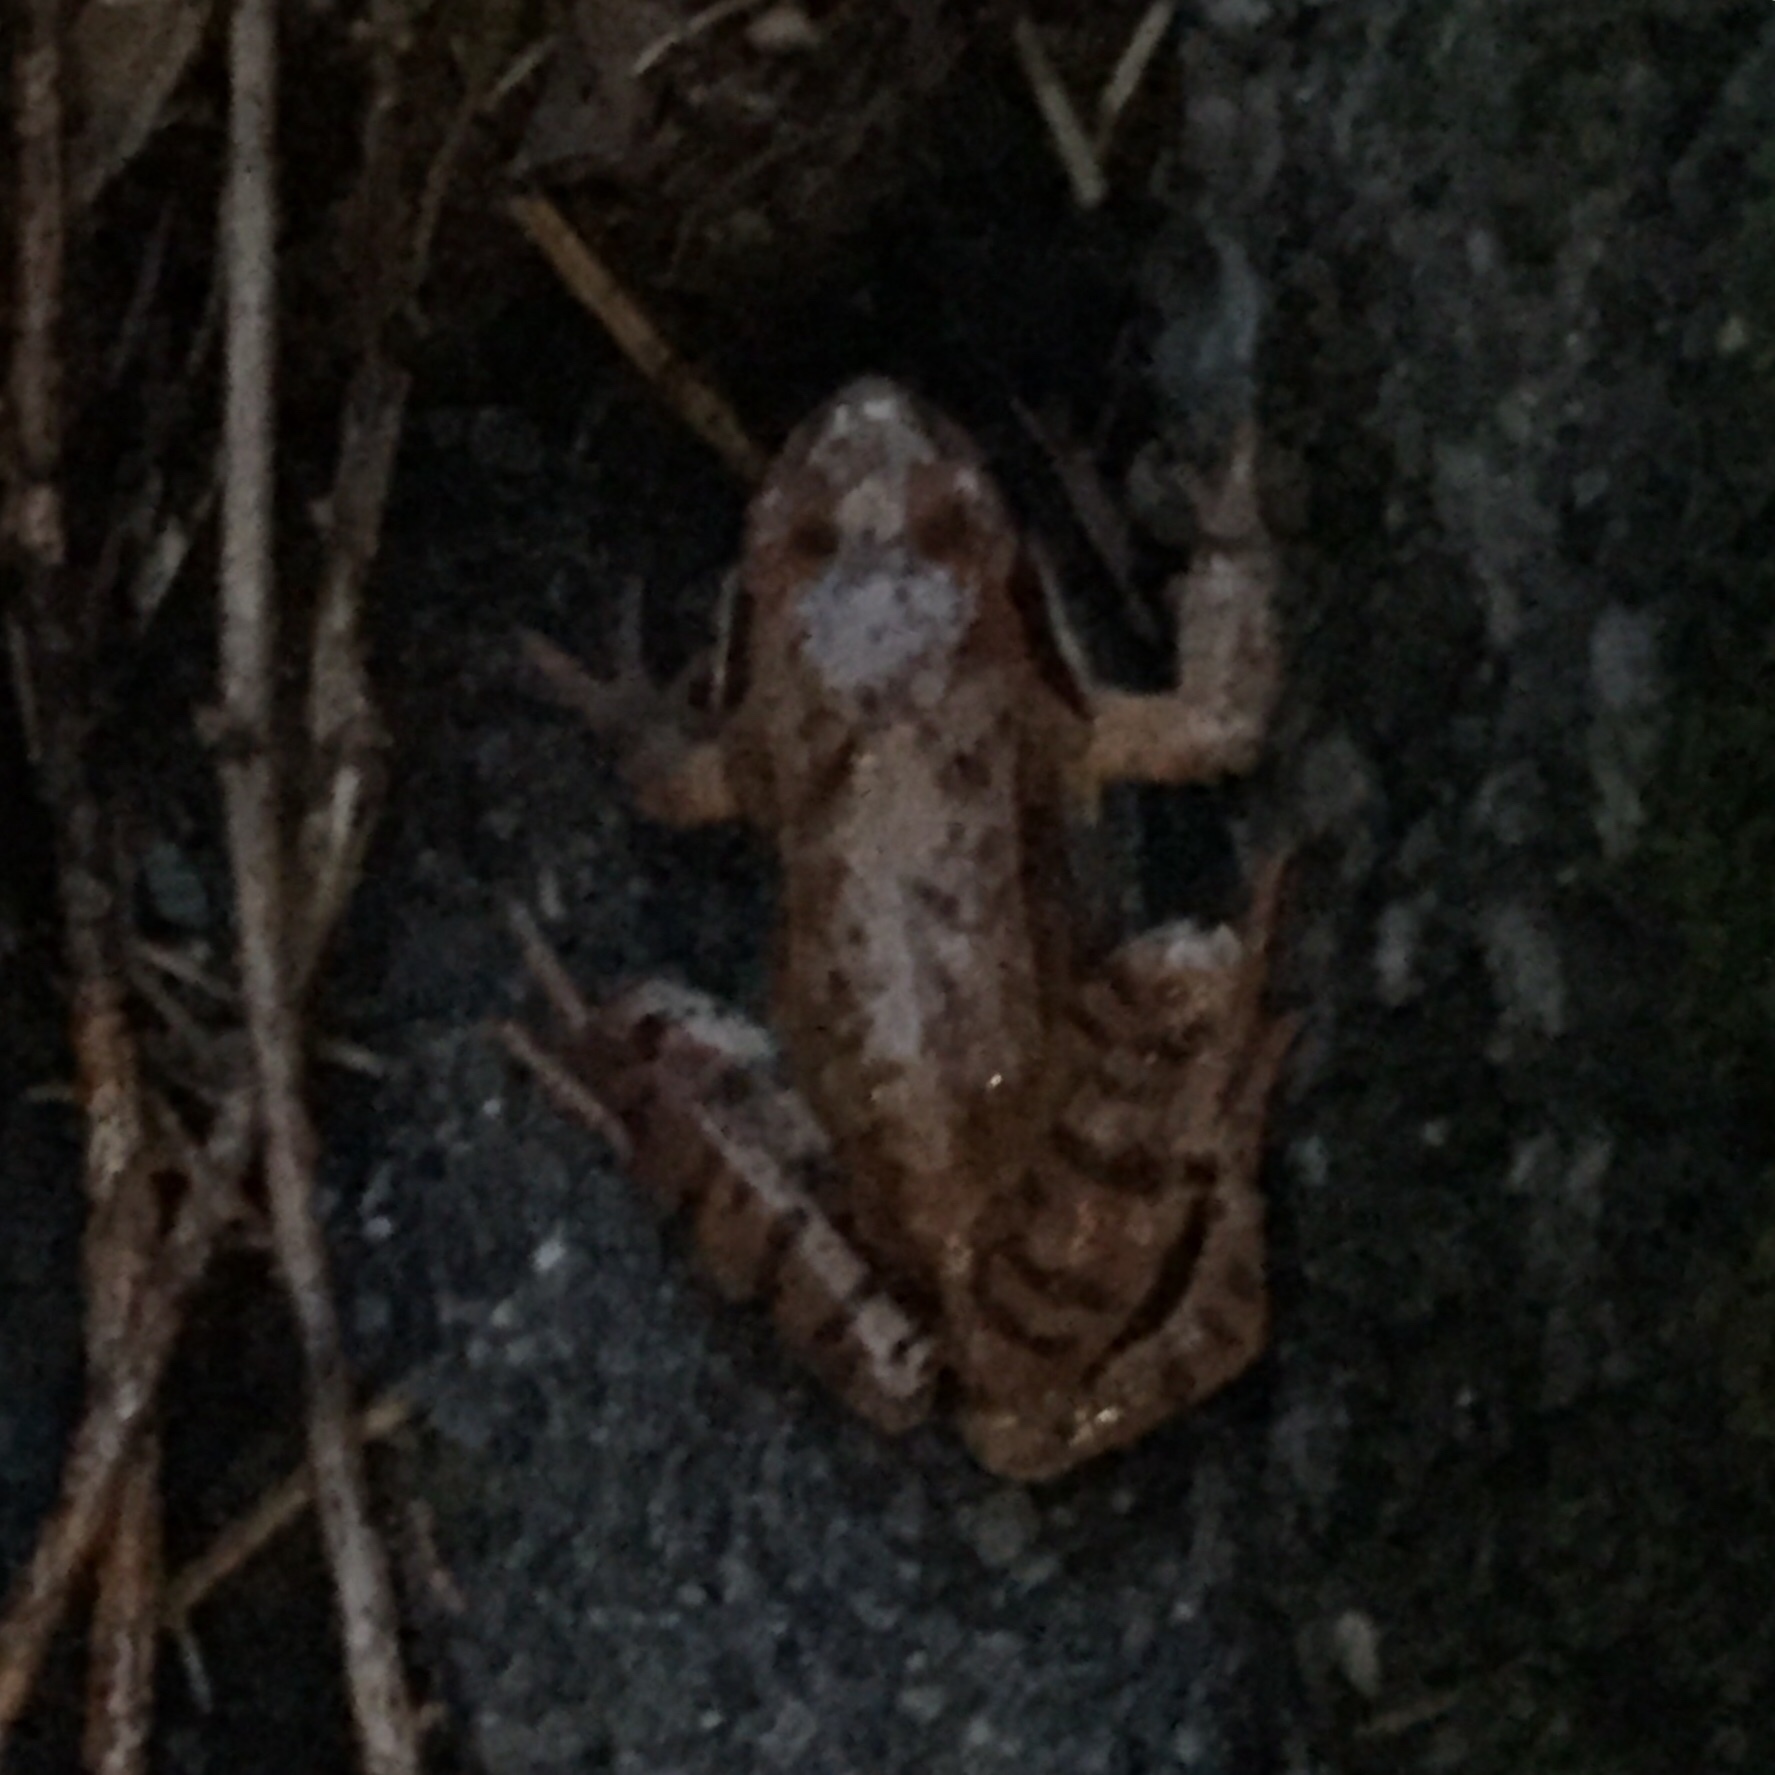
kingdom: Animalia
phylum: Chordata
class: Amphibia
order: Anura
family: Ranidae
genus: Rana
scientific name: Rana temporaria
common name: Common frog
